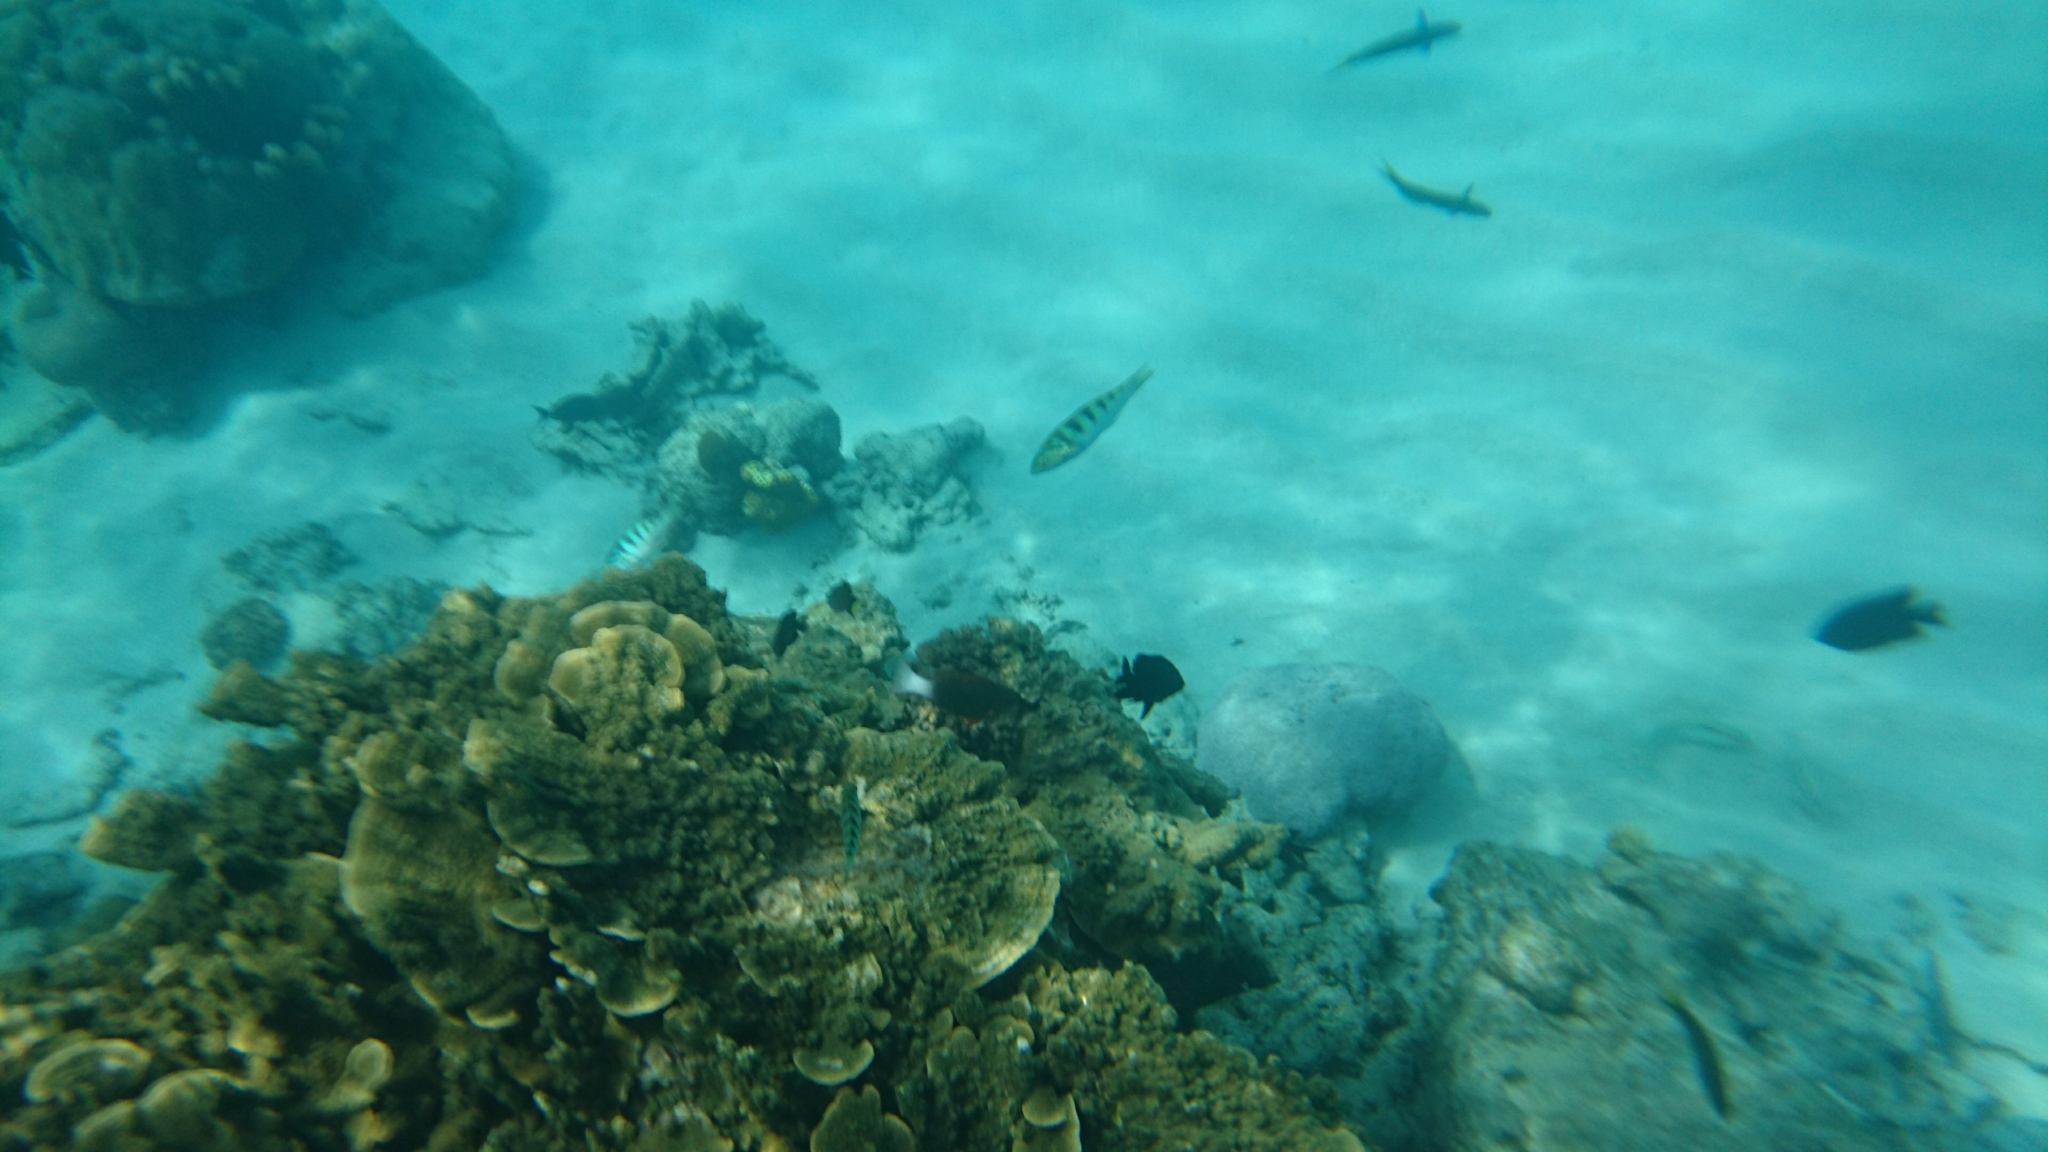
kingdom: Animalia
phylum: Chordata
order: Perciformes
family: Labridae
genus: Thalassoma
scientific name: Thalassoma hardwicke
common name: Sixbar wrasse
